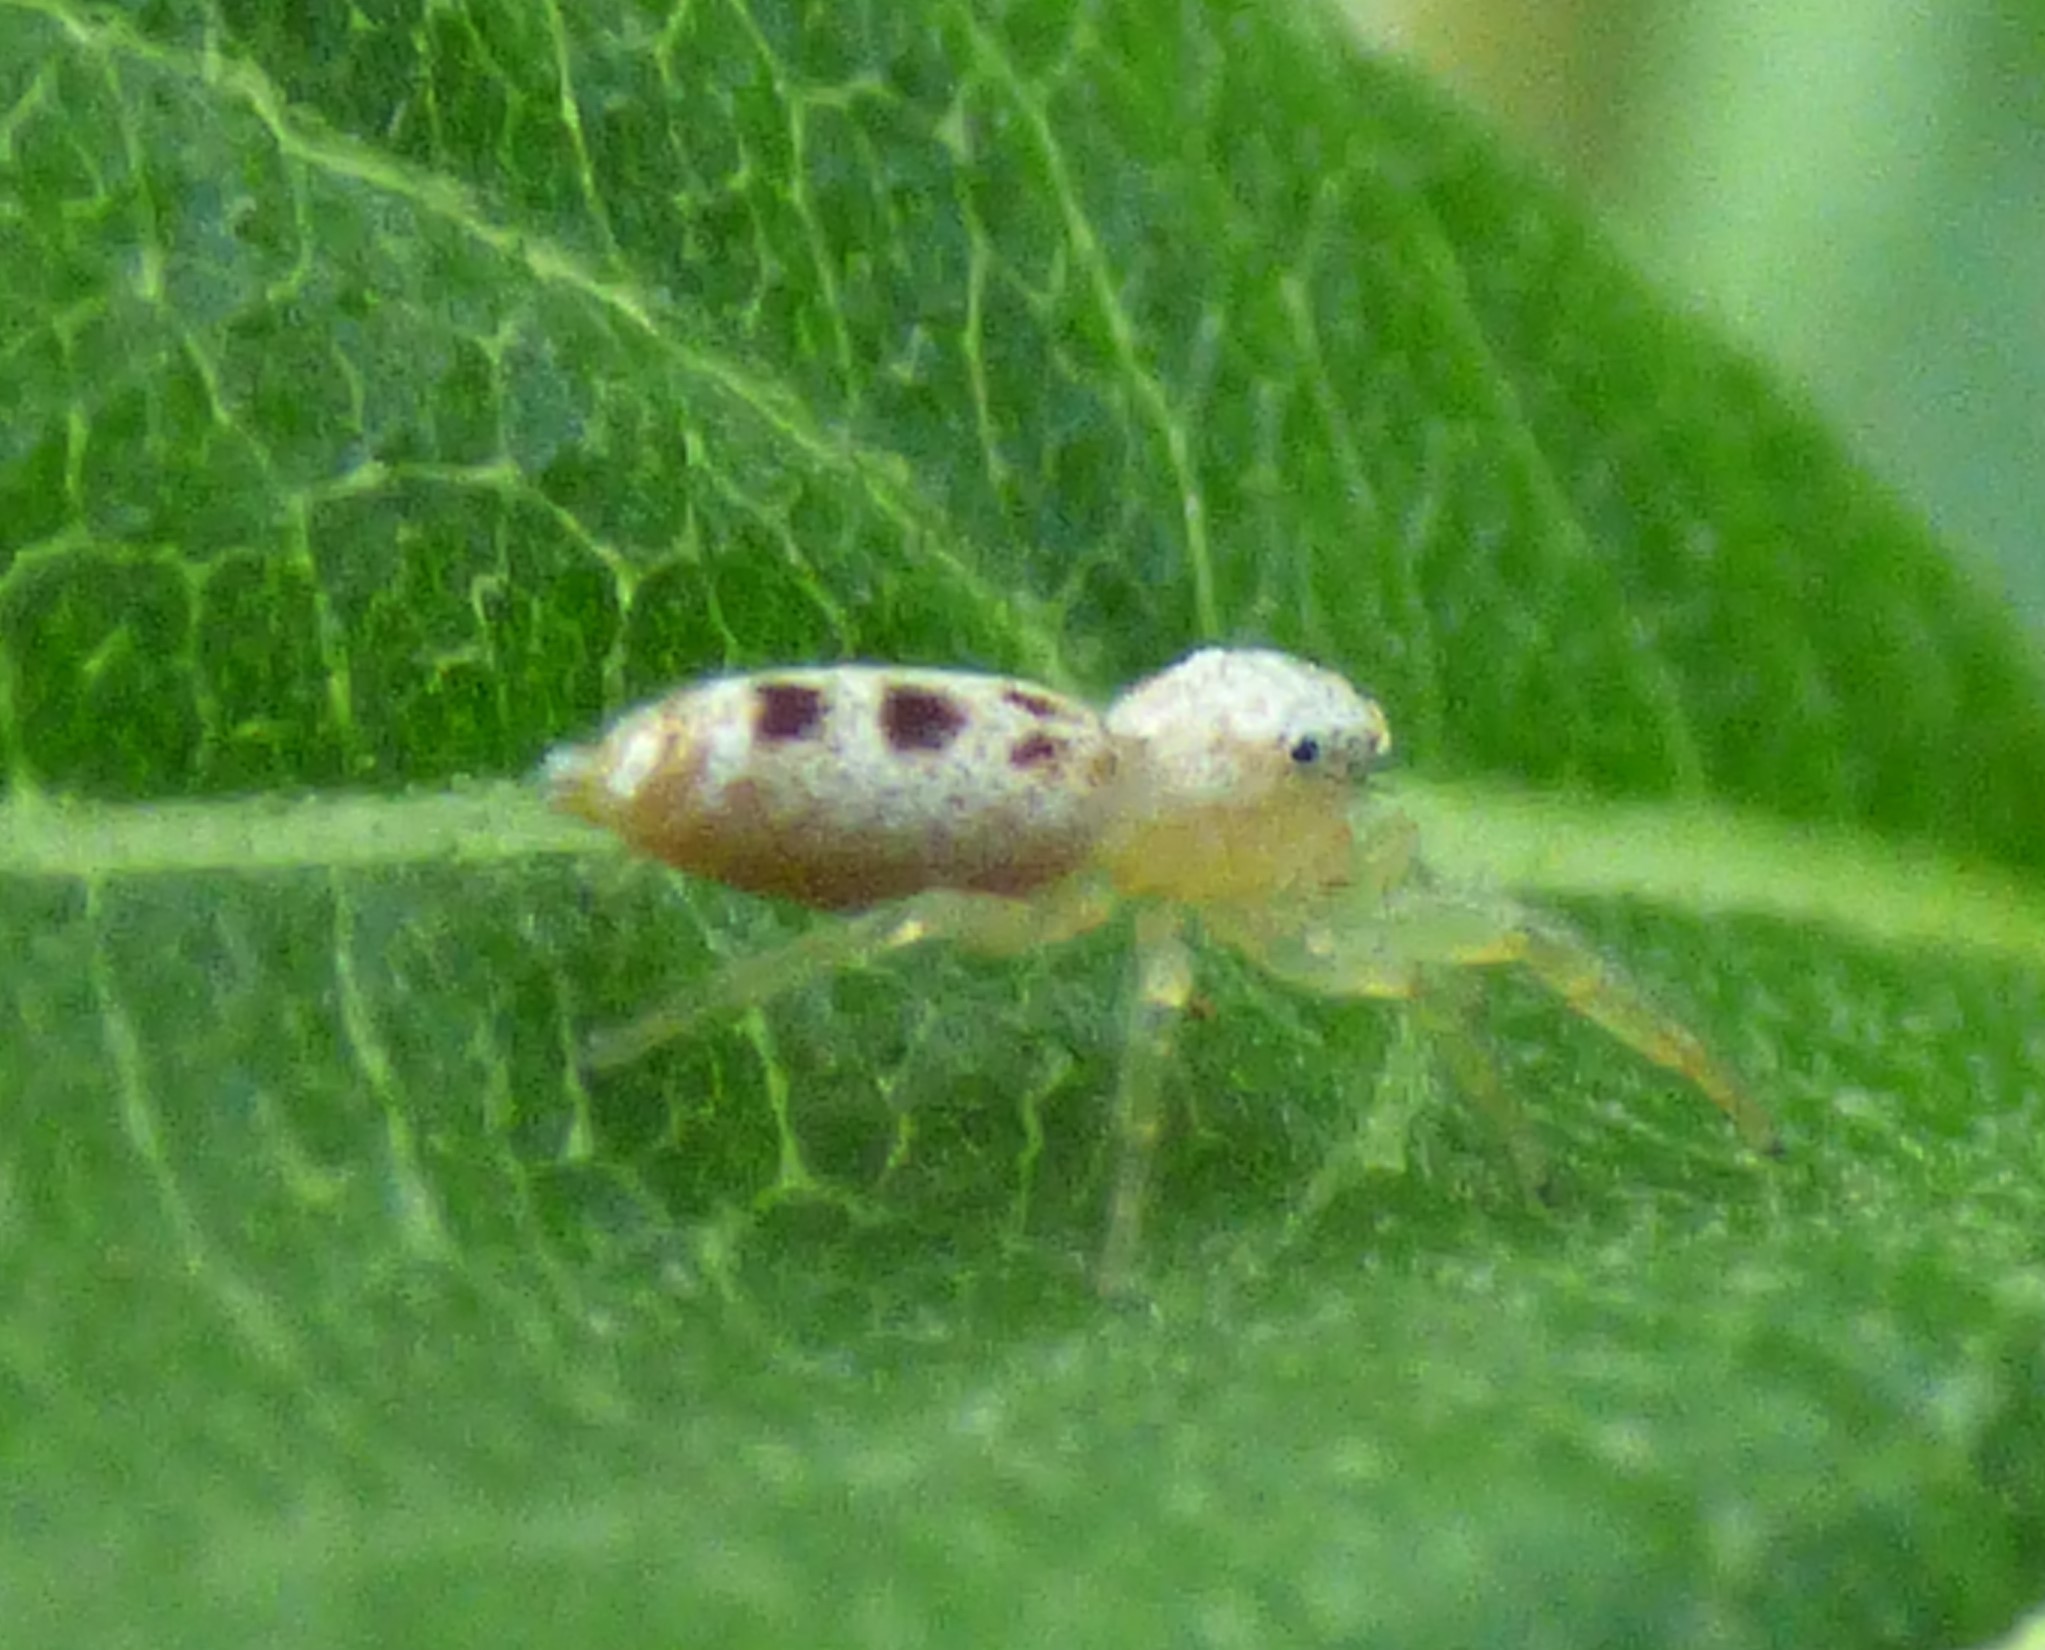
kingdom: Animalia
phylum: Arthropoda
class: Arachnida
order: Araneae
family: Salticidae
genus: Hentzia
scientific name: Hentzia mitrata
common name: White-jawed jumping spider
